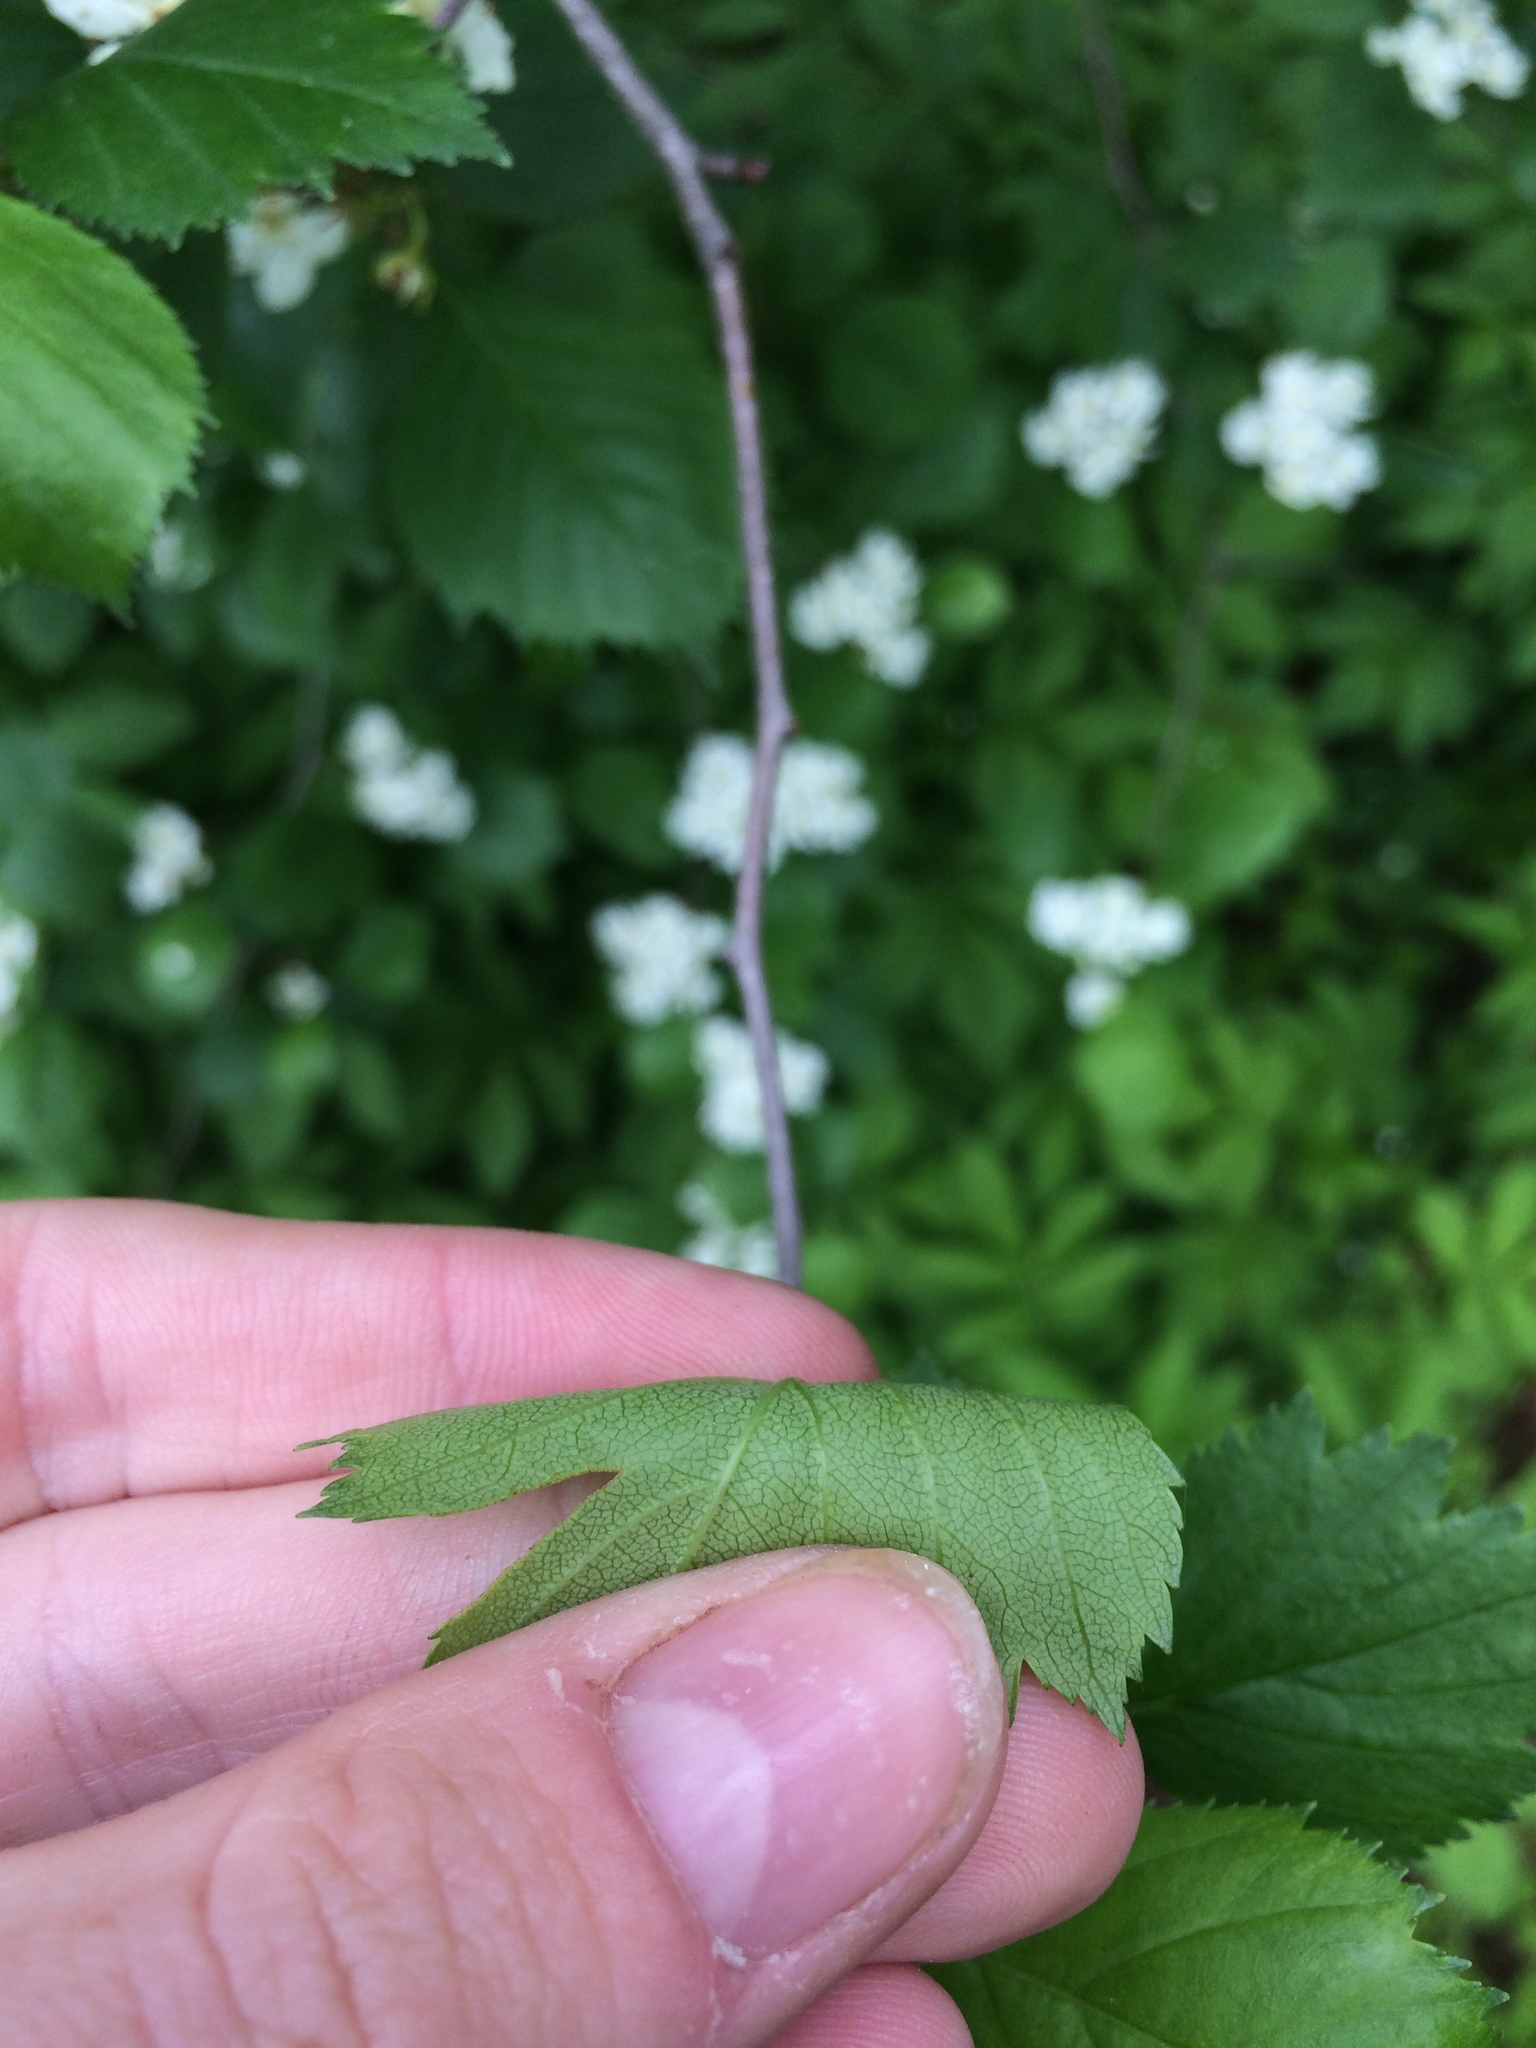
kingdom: Plantae
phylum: Tracheophyta
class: Magnoliopsida
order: Rosales
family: Rosaceae
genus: Crataegus
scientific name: Crataegus chrysocarpa
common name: Fire-berry hawthorn
